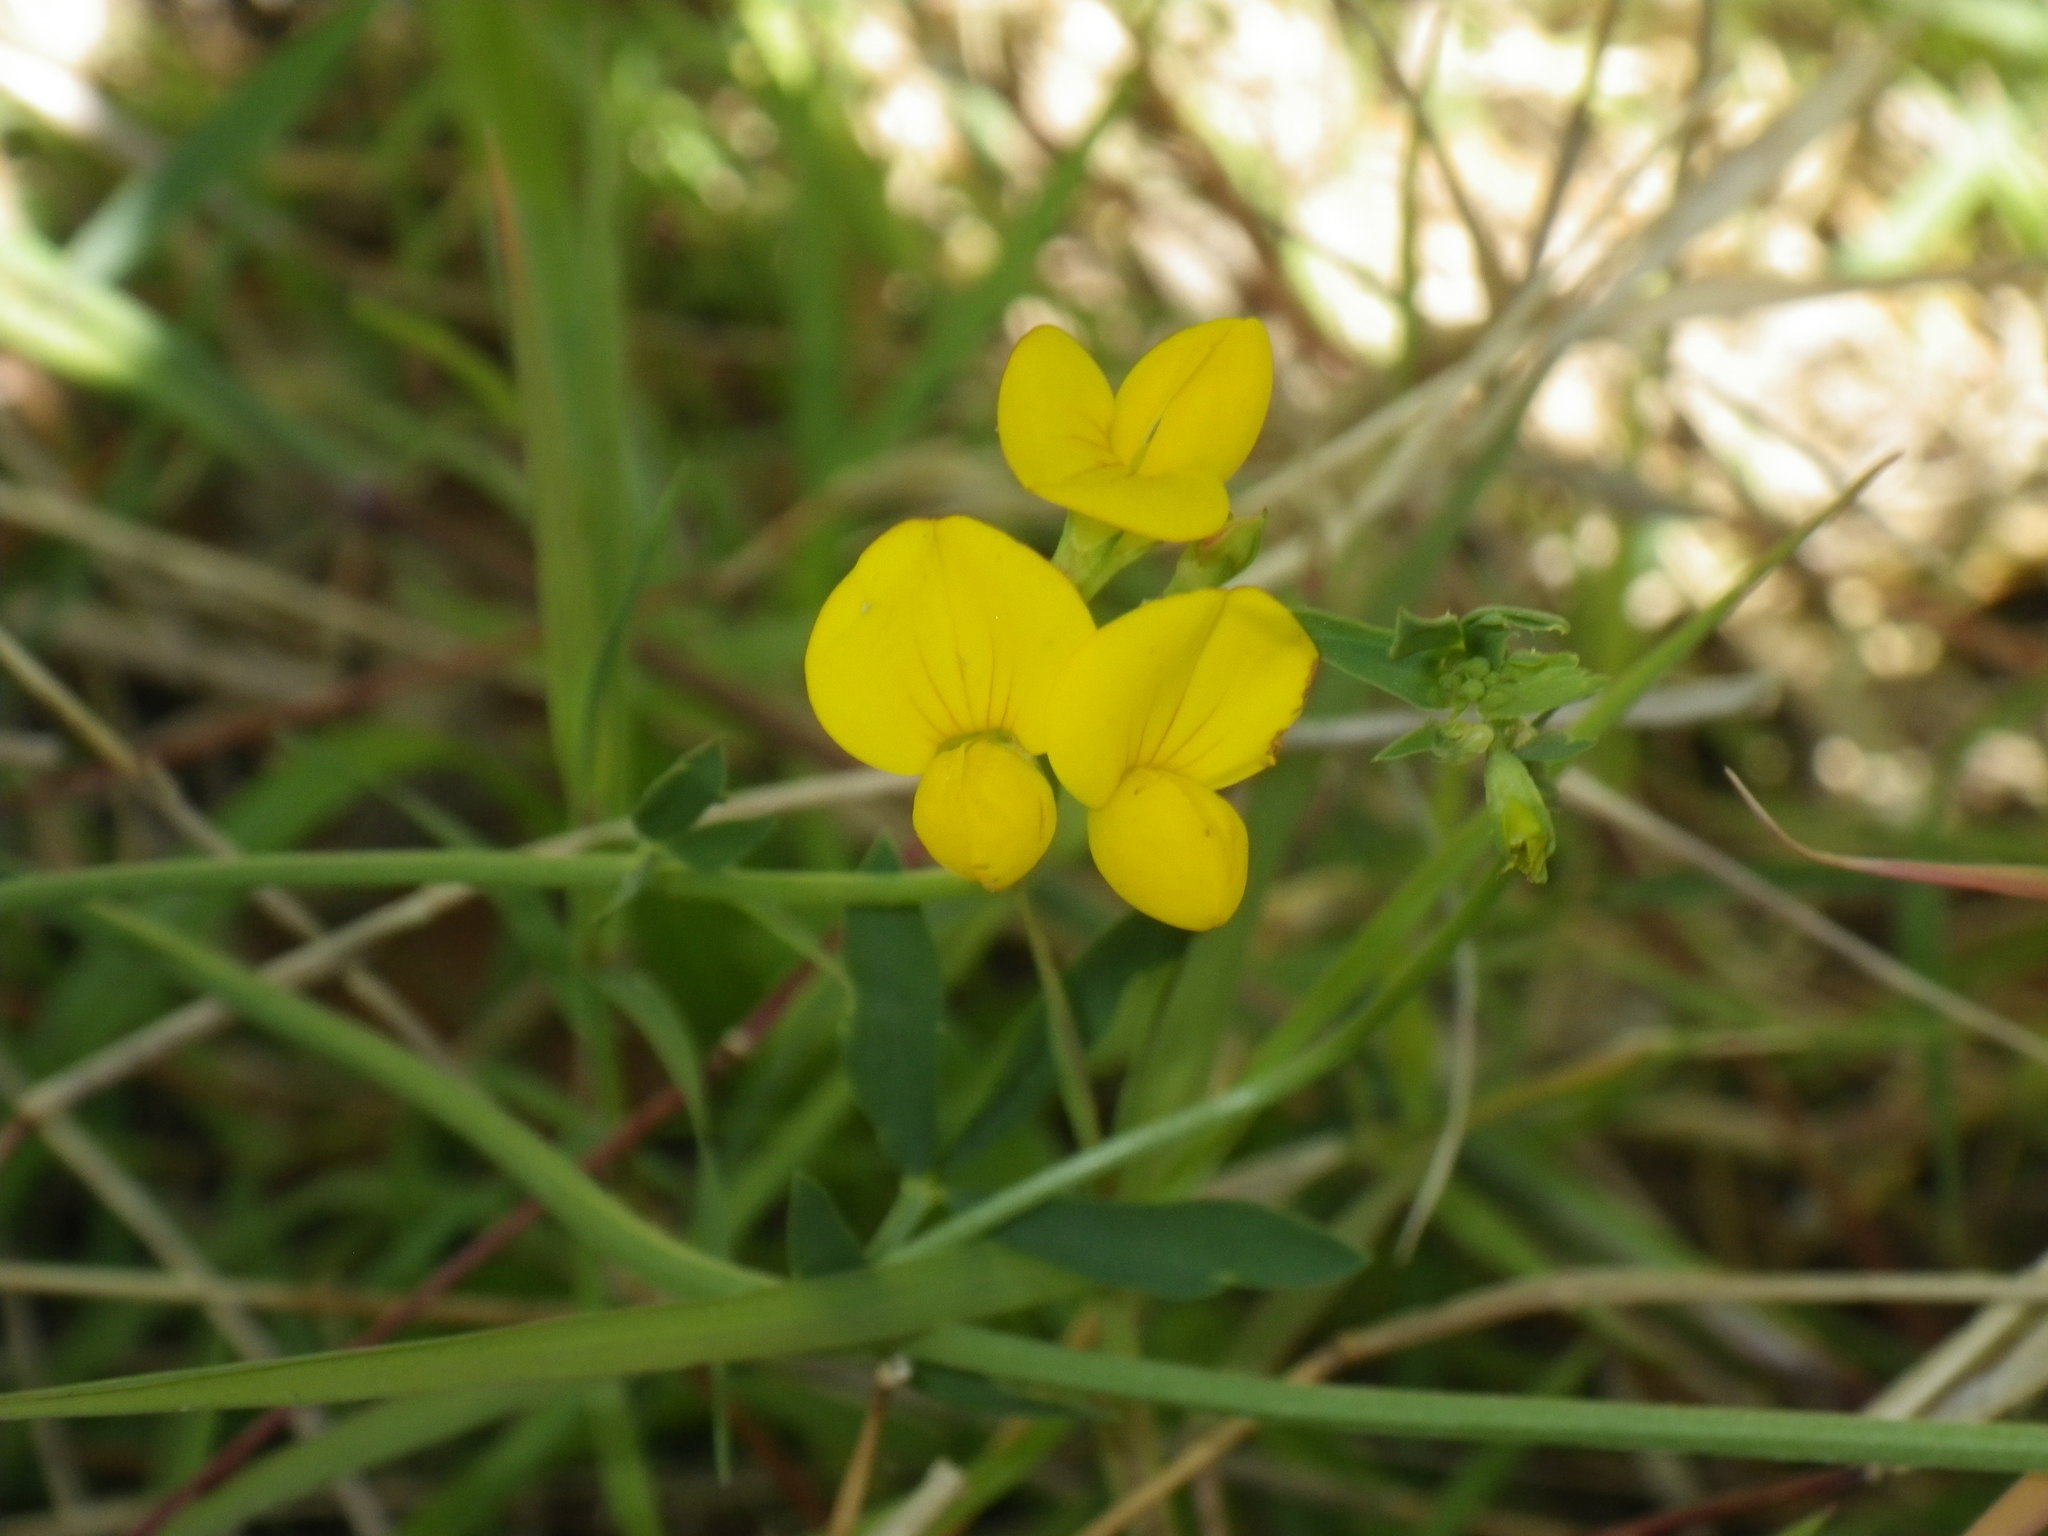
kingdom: Plantae
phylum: Tracheophyta
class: Magnoliopsida
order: Fabales
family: Fabaceae
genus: Lotus
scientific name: Lotus corniculatus
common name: Common bird's-foot-trefoil
